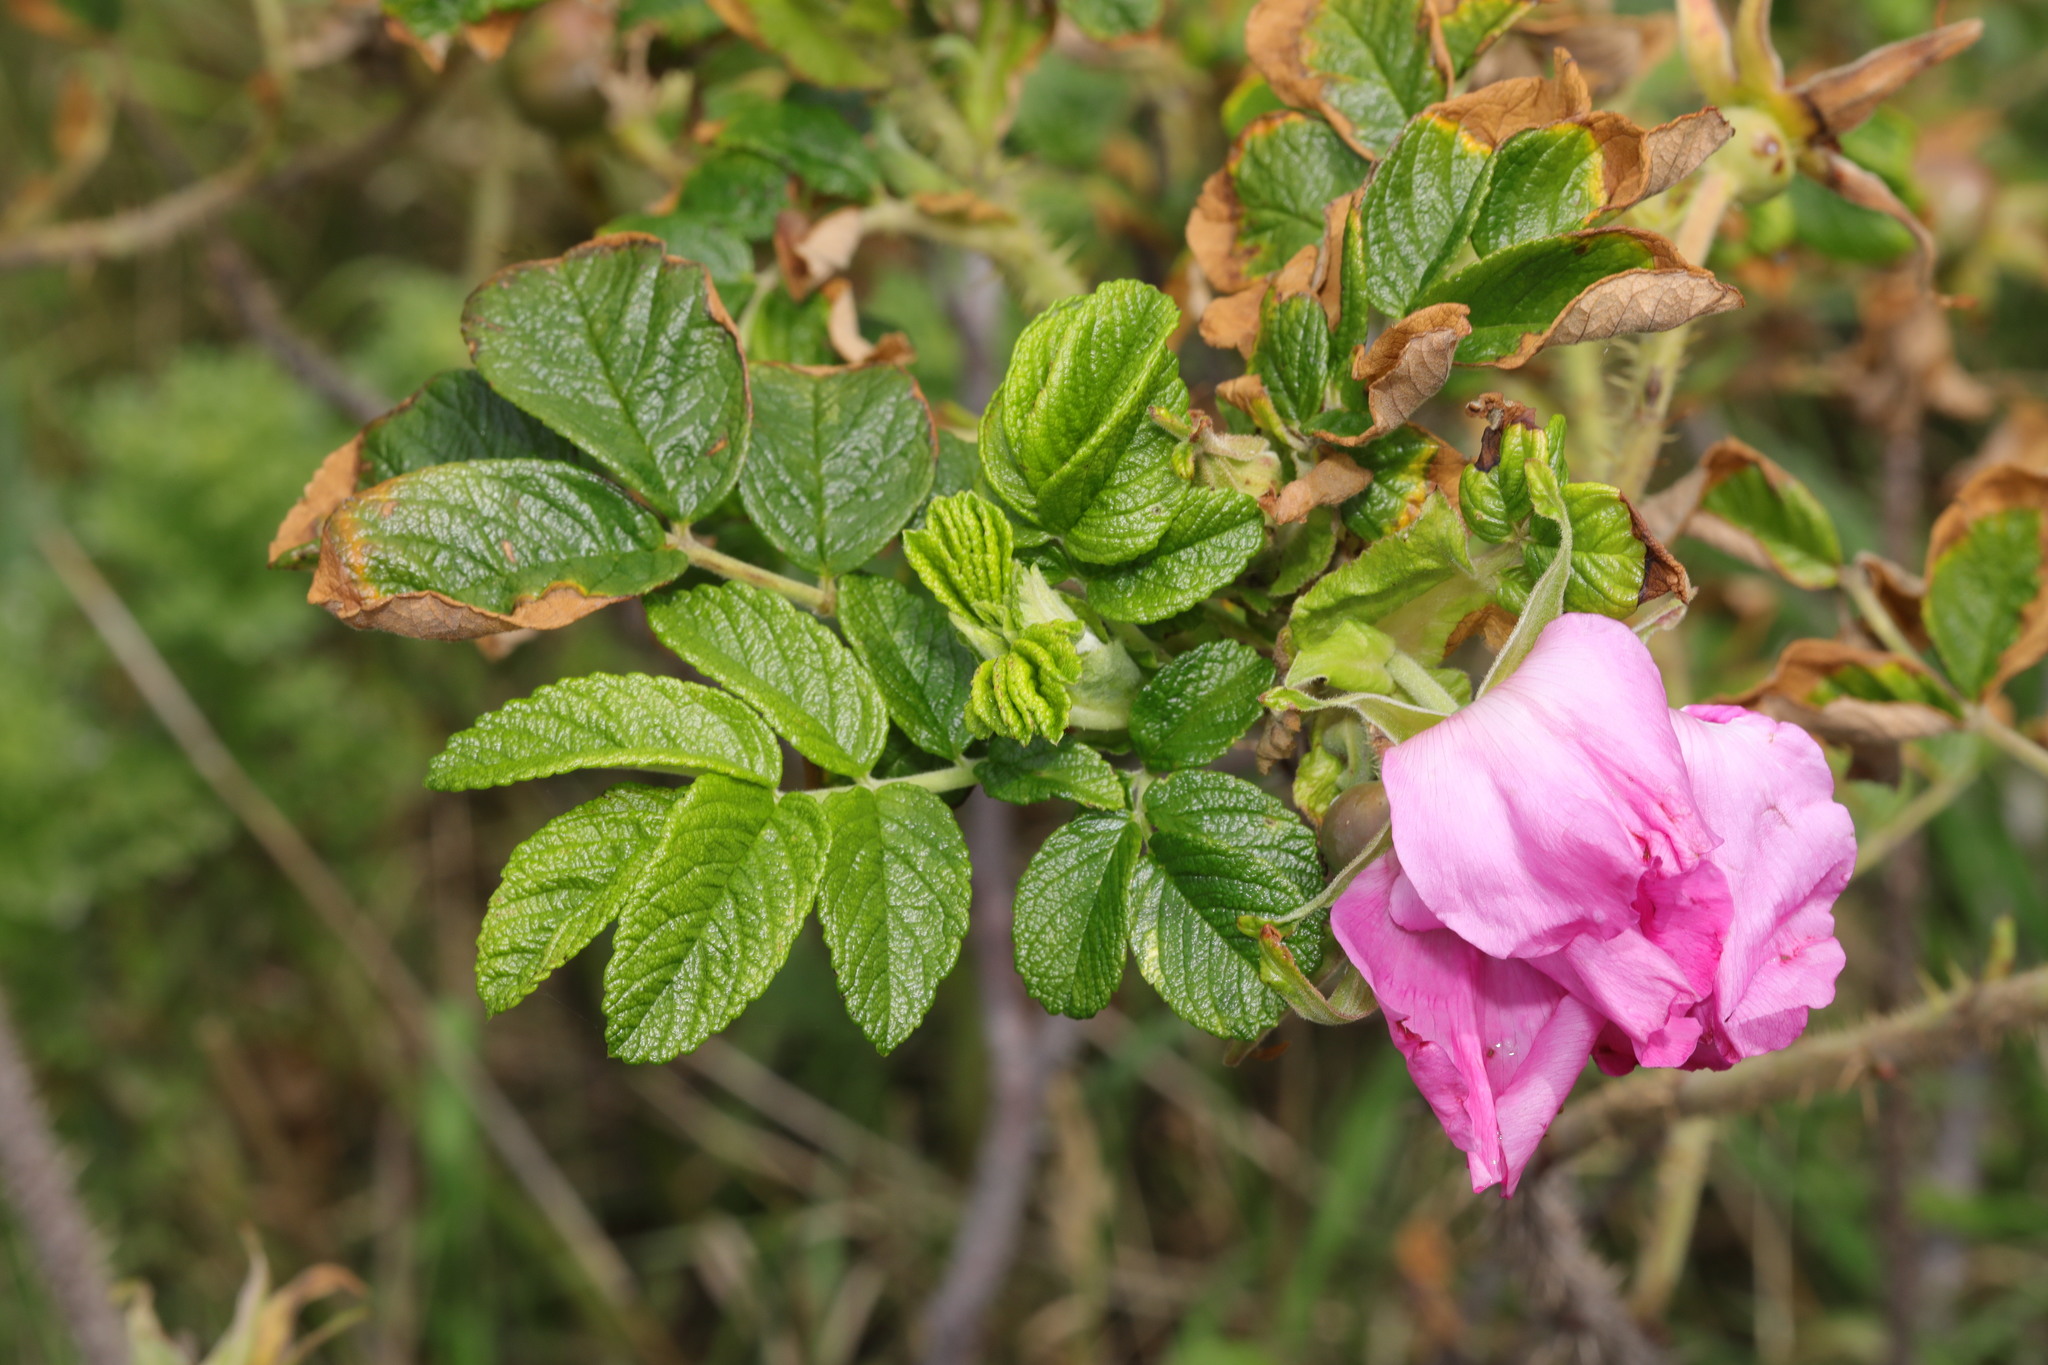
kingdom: Plantae
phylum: Tracheophyta
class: Magnoliopsida
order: Rosales
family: Rosaceae
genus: Rosa
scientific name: Rosa rugosa
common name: Japanese rose
